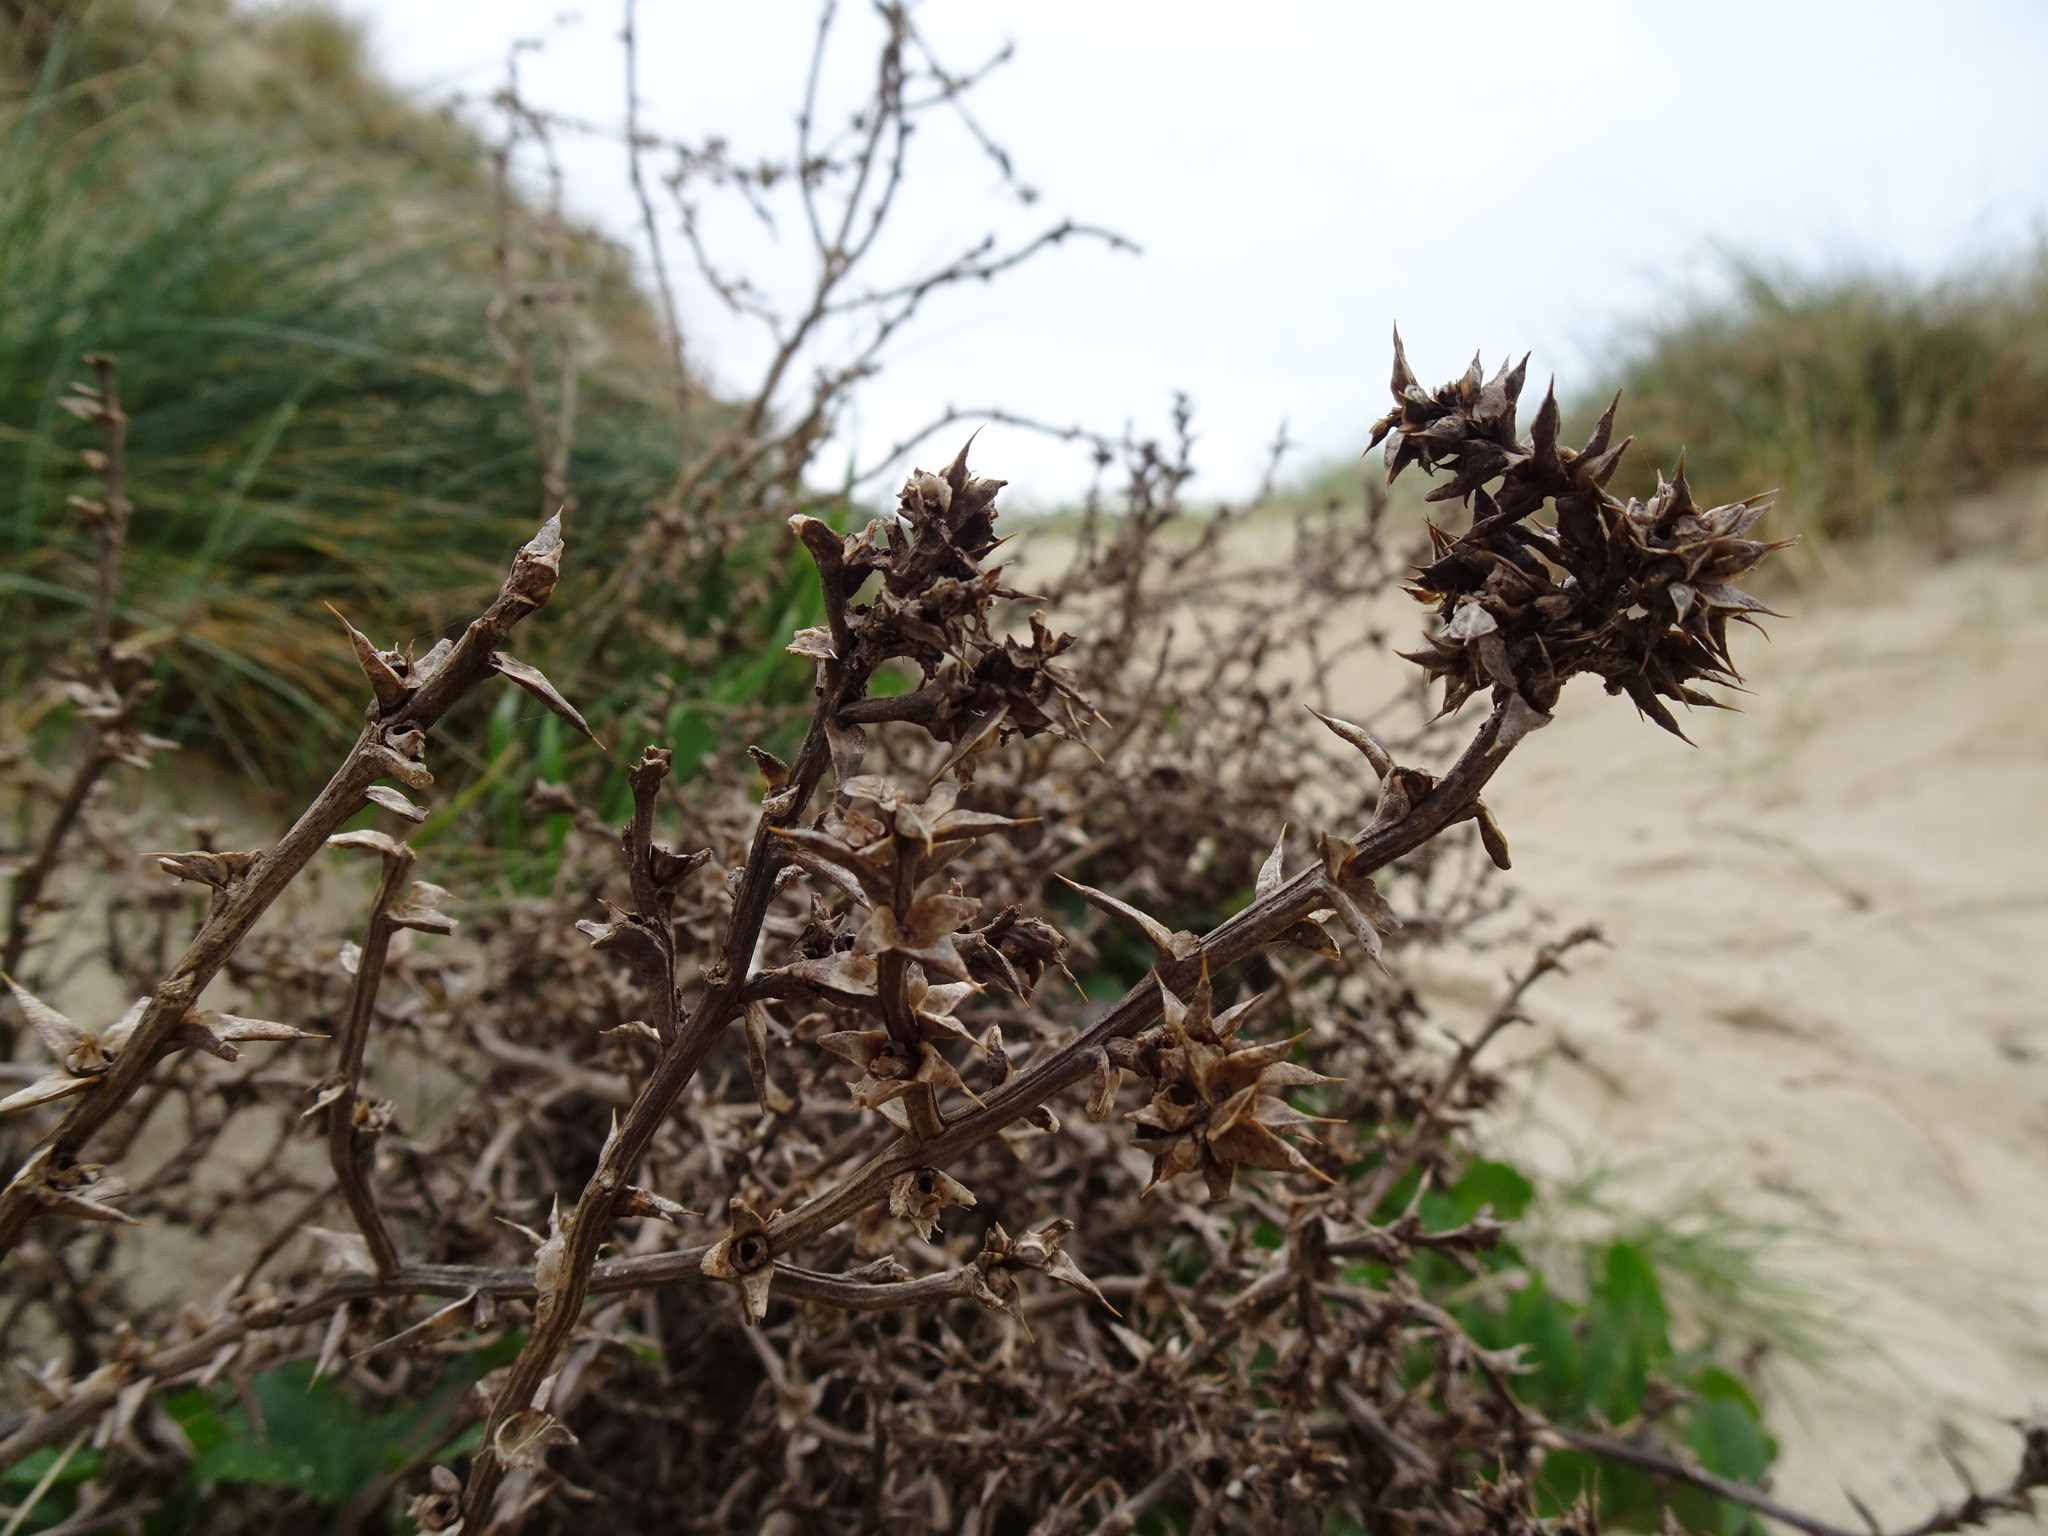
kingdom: Plantae
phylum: Tracheophyta
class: Magnoliopsida
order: Caryophyllales
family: Amaranthaceae
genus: Salsola
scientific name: Salsola kali
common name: Saltwort
